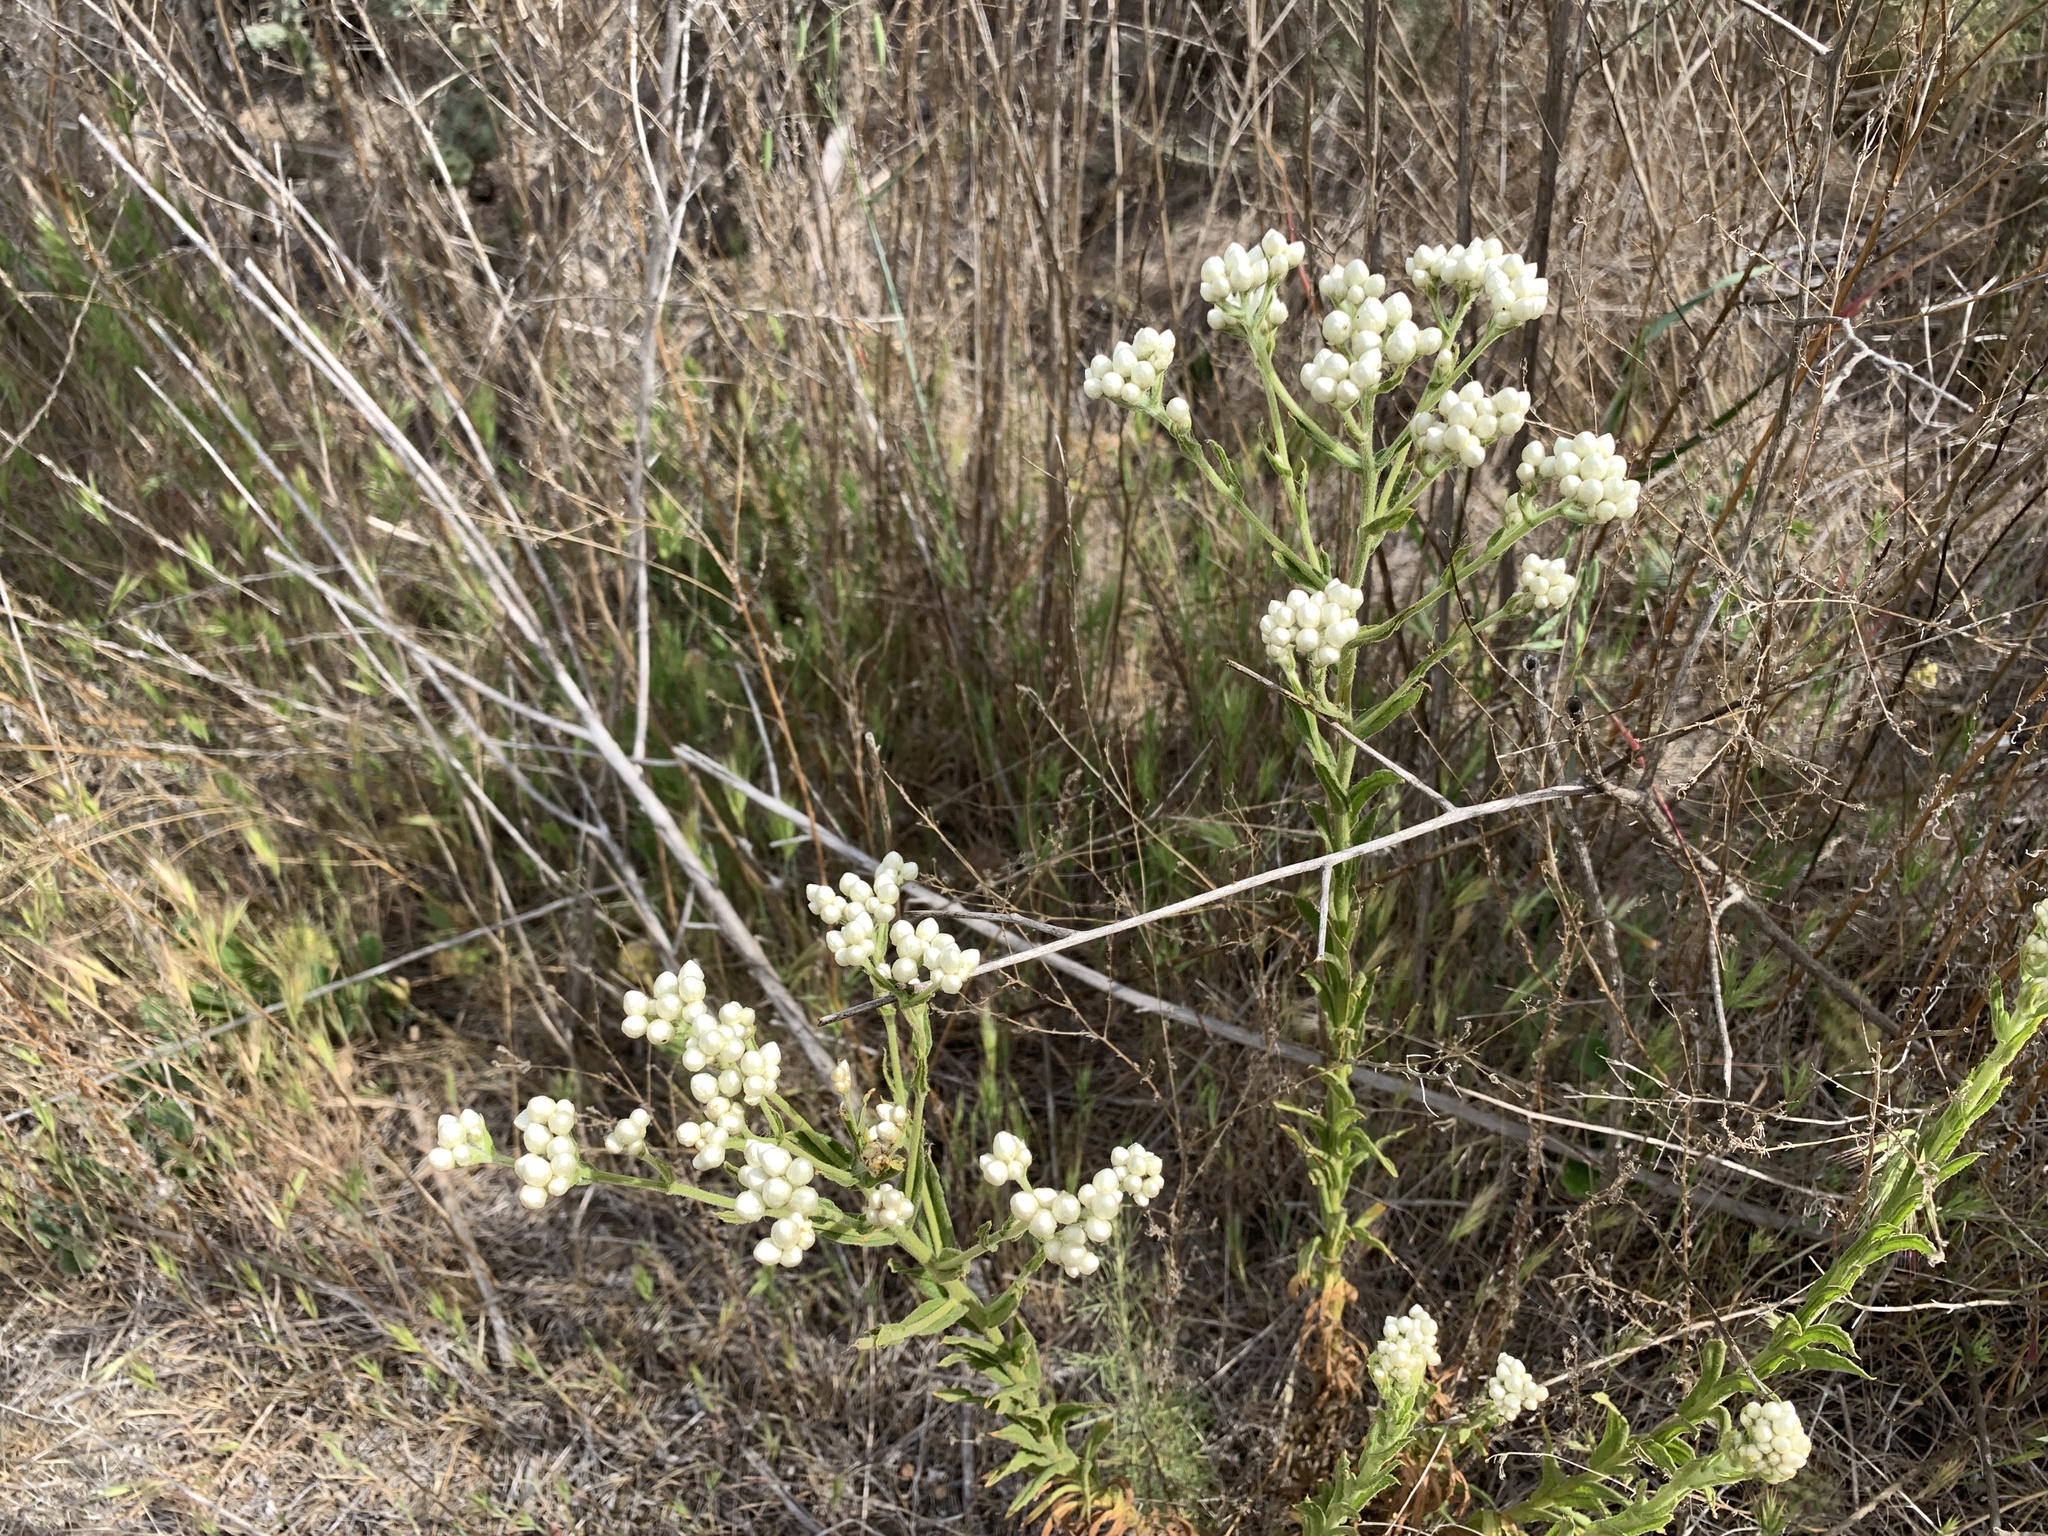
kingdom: Plantae
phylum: Tracheophyta
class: Magnoliopsida
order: Asterales
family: Asteraceae
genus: Pseudognaphalium
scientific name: Pseudognaphalium biolettii
